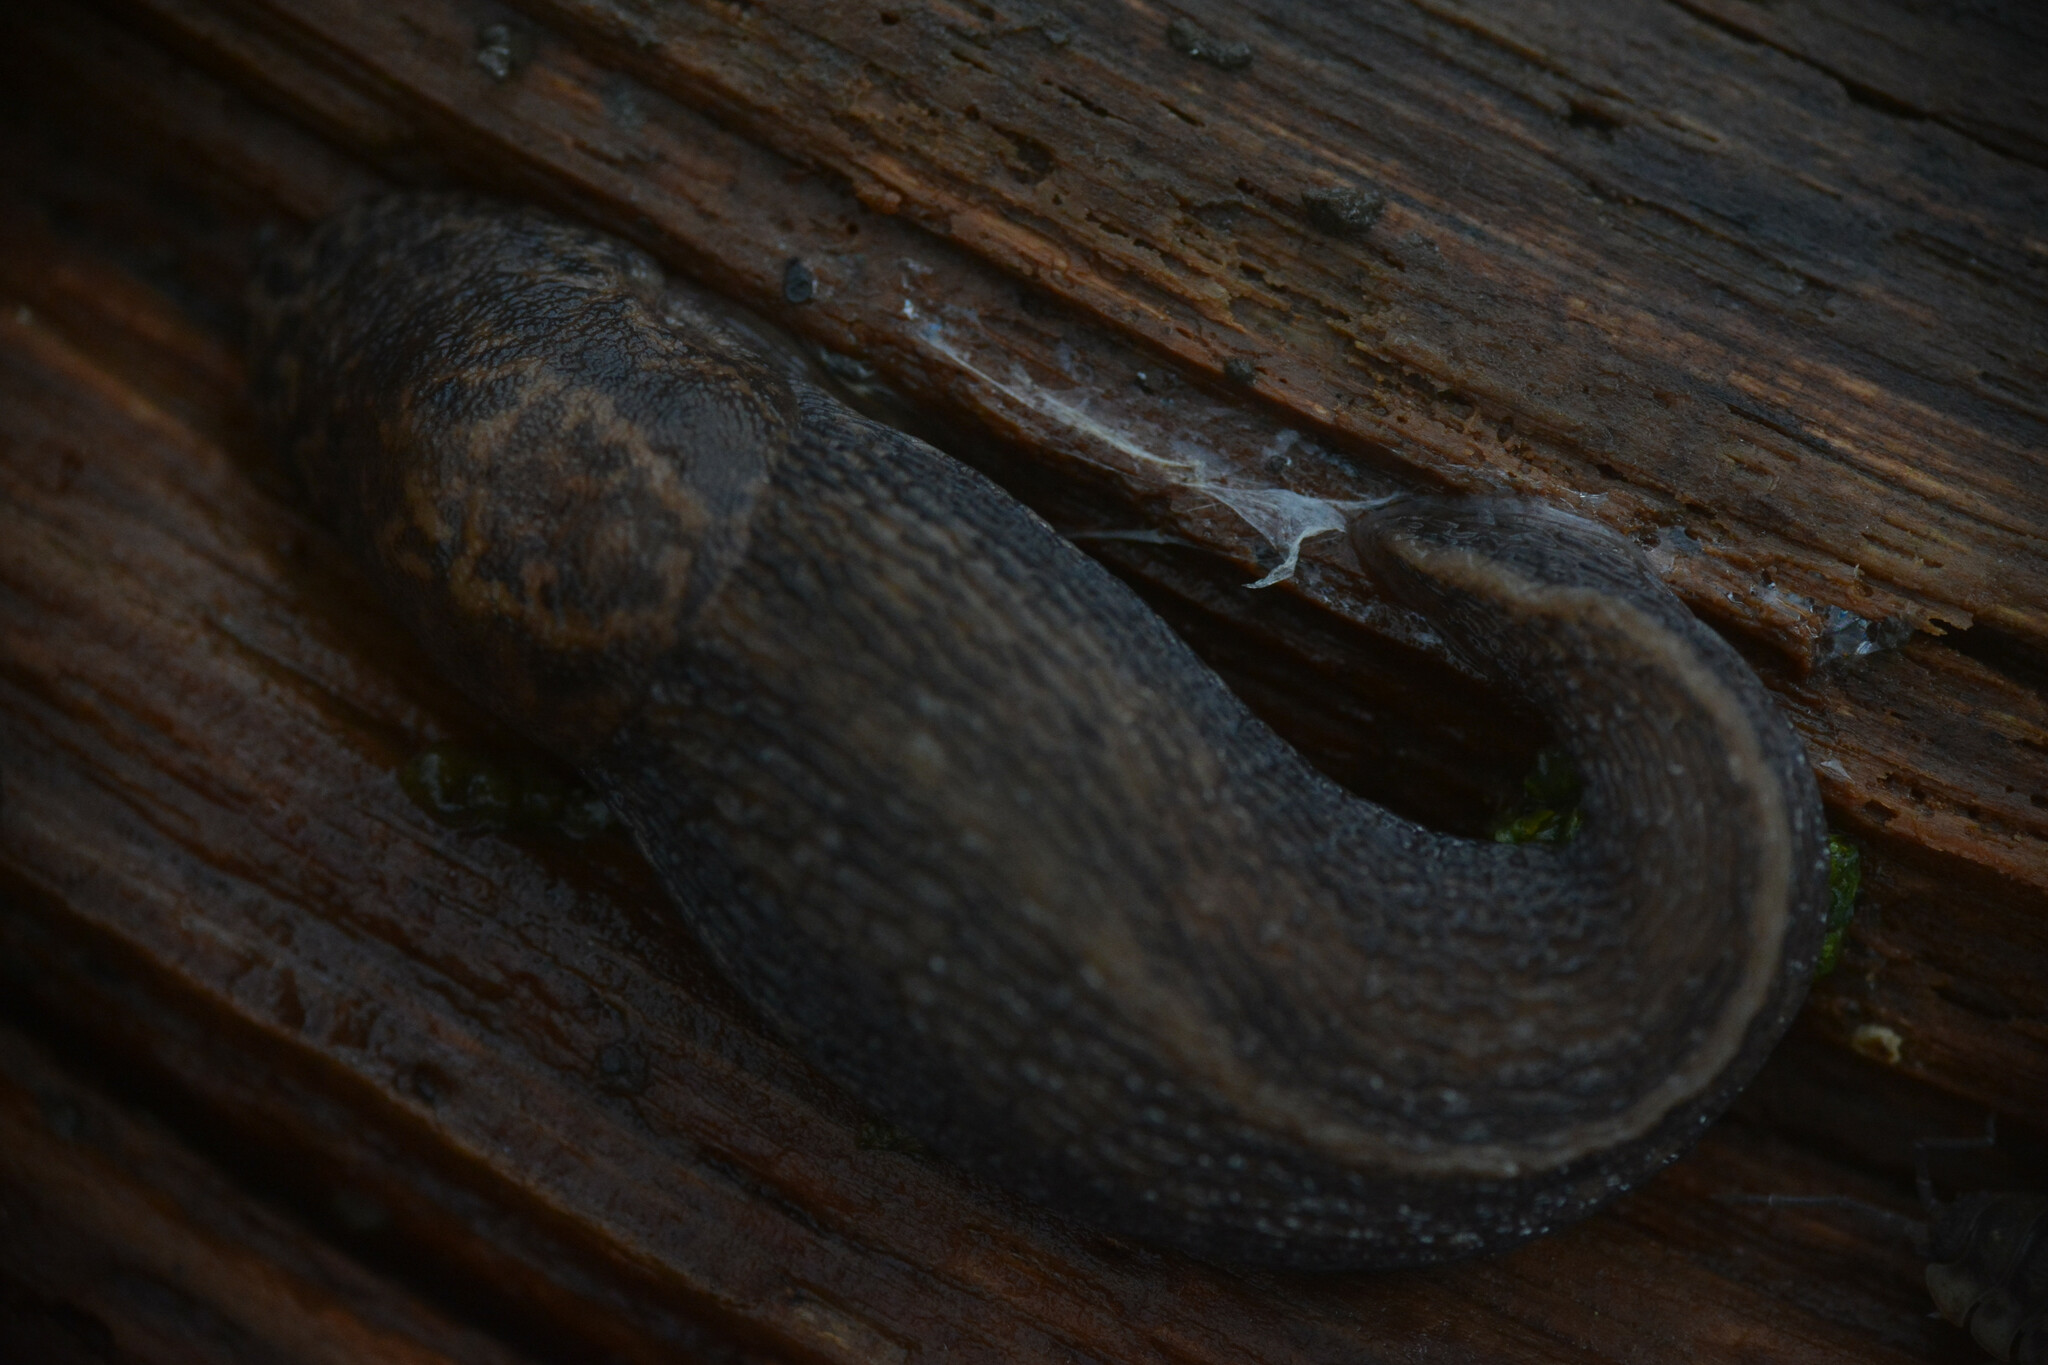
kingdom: Animalia
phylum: Mollusca
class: Gastropoda
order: Stylommatophora
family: Limacidae
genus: Limax
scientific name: Limax maximus
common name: Great grey slug
